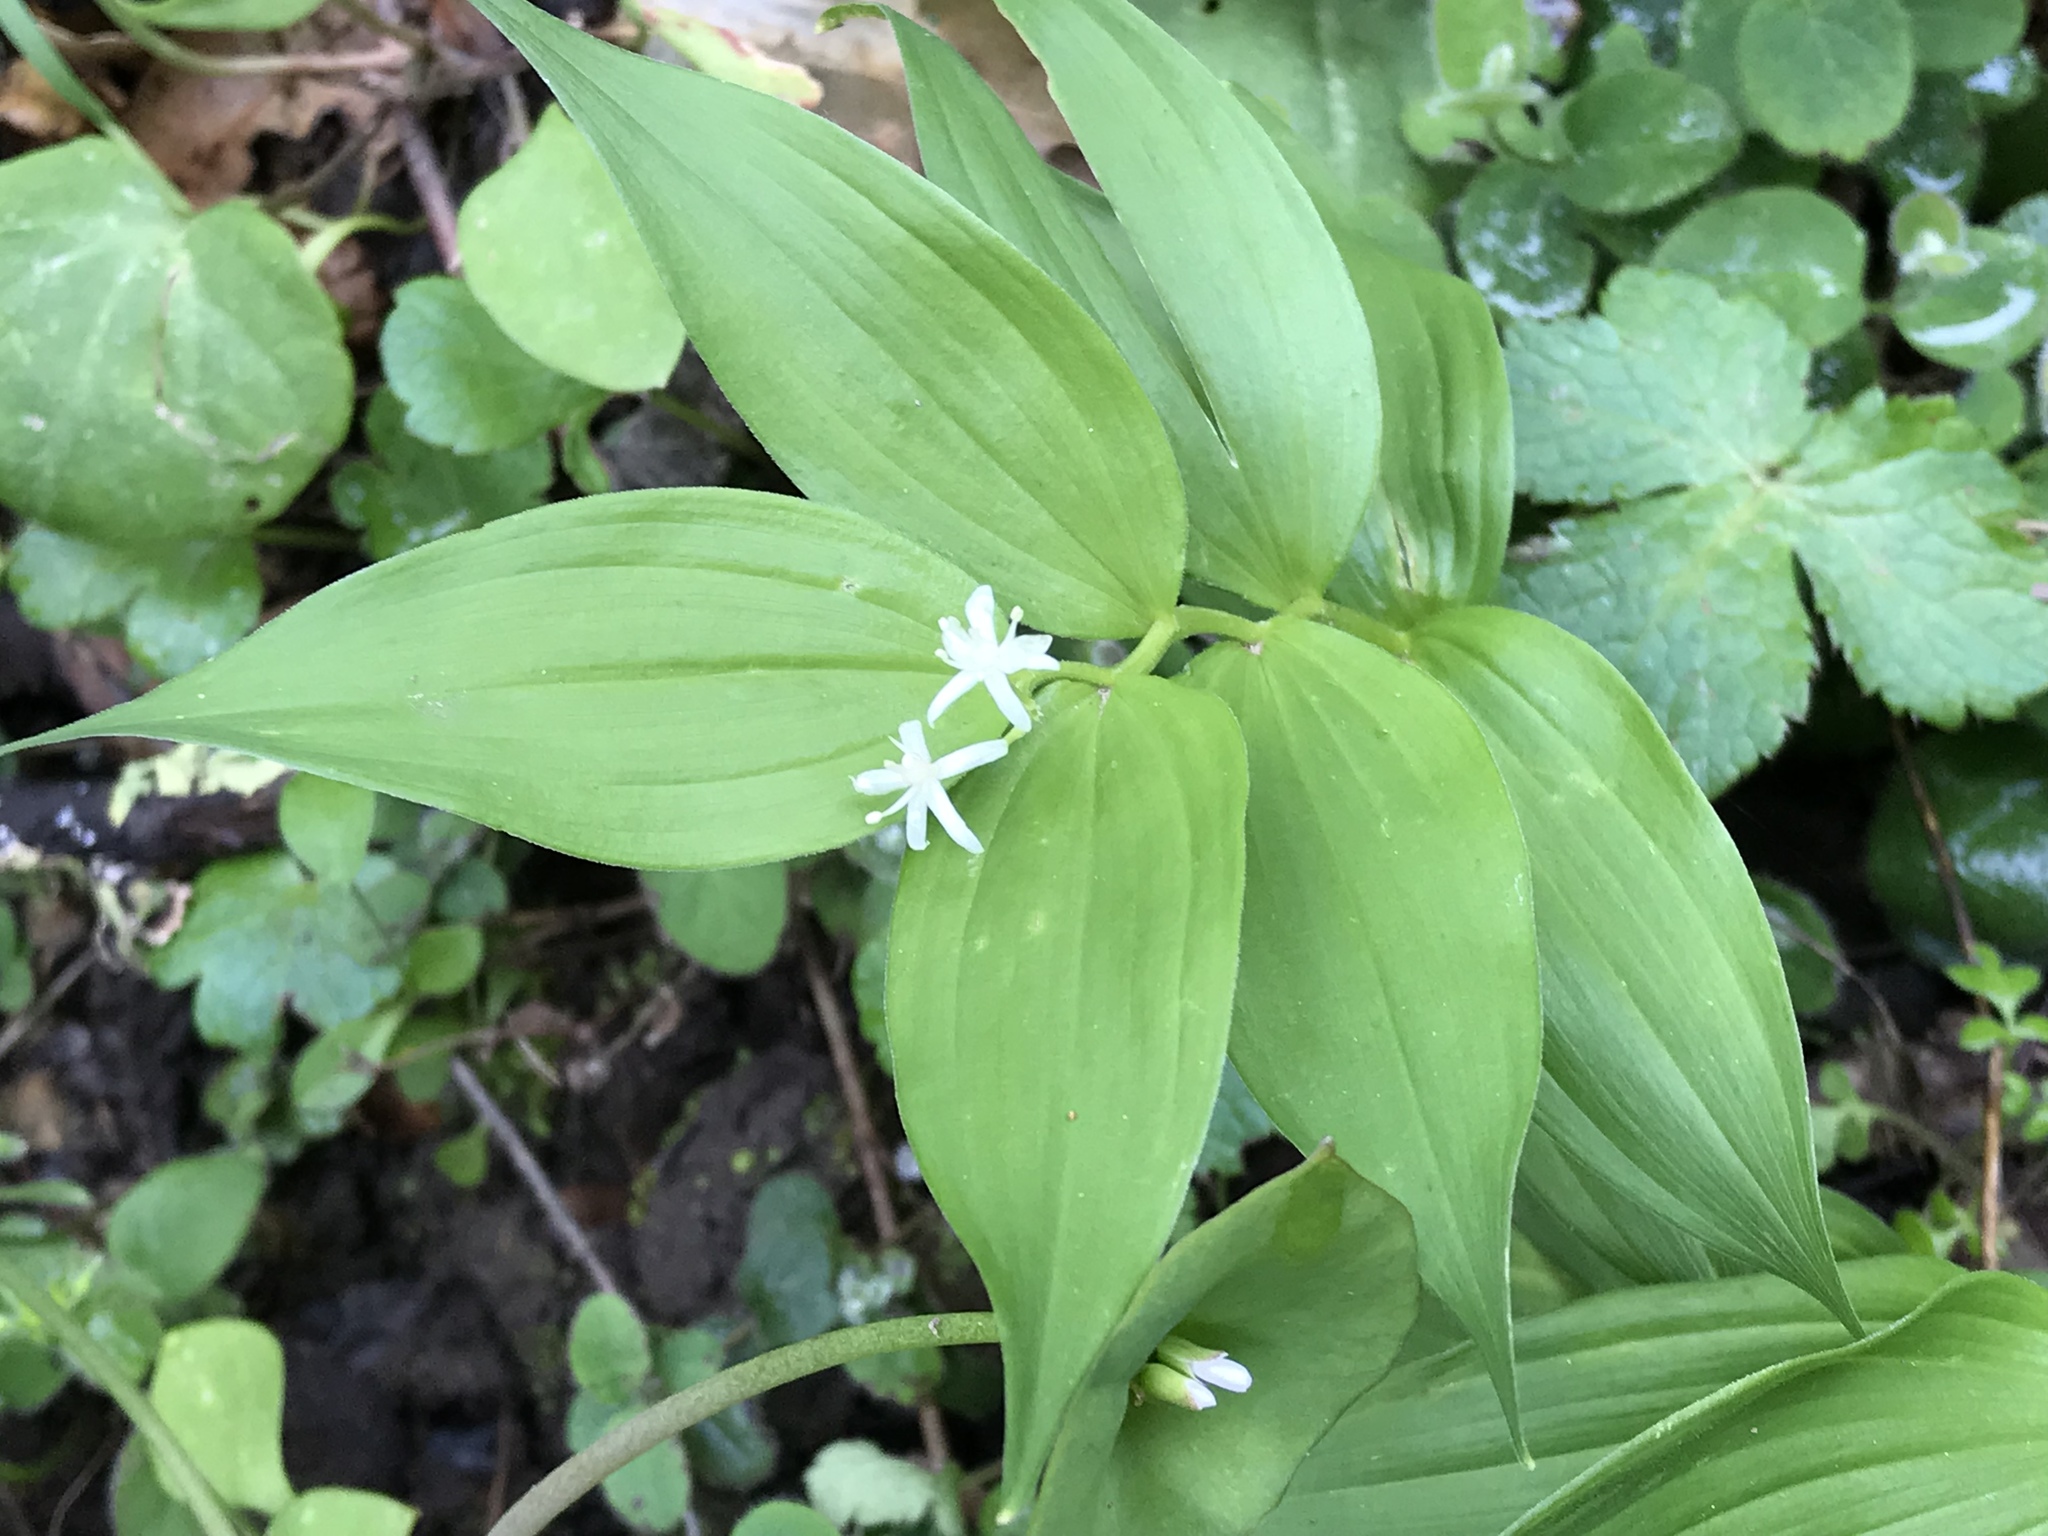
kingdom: Plantae
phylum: Tracheophyta
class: Liliopsida
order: Asparagales
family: Asparagaceae
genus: Maianthemum
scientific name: Maianthemum stellatum
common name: Little false solomon's seal
